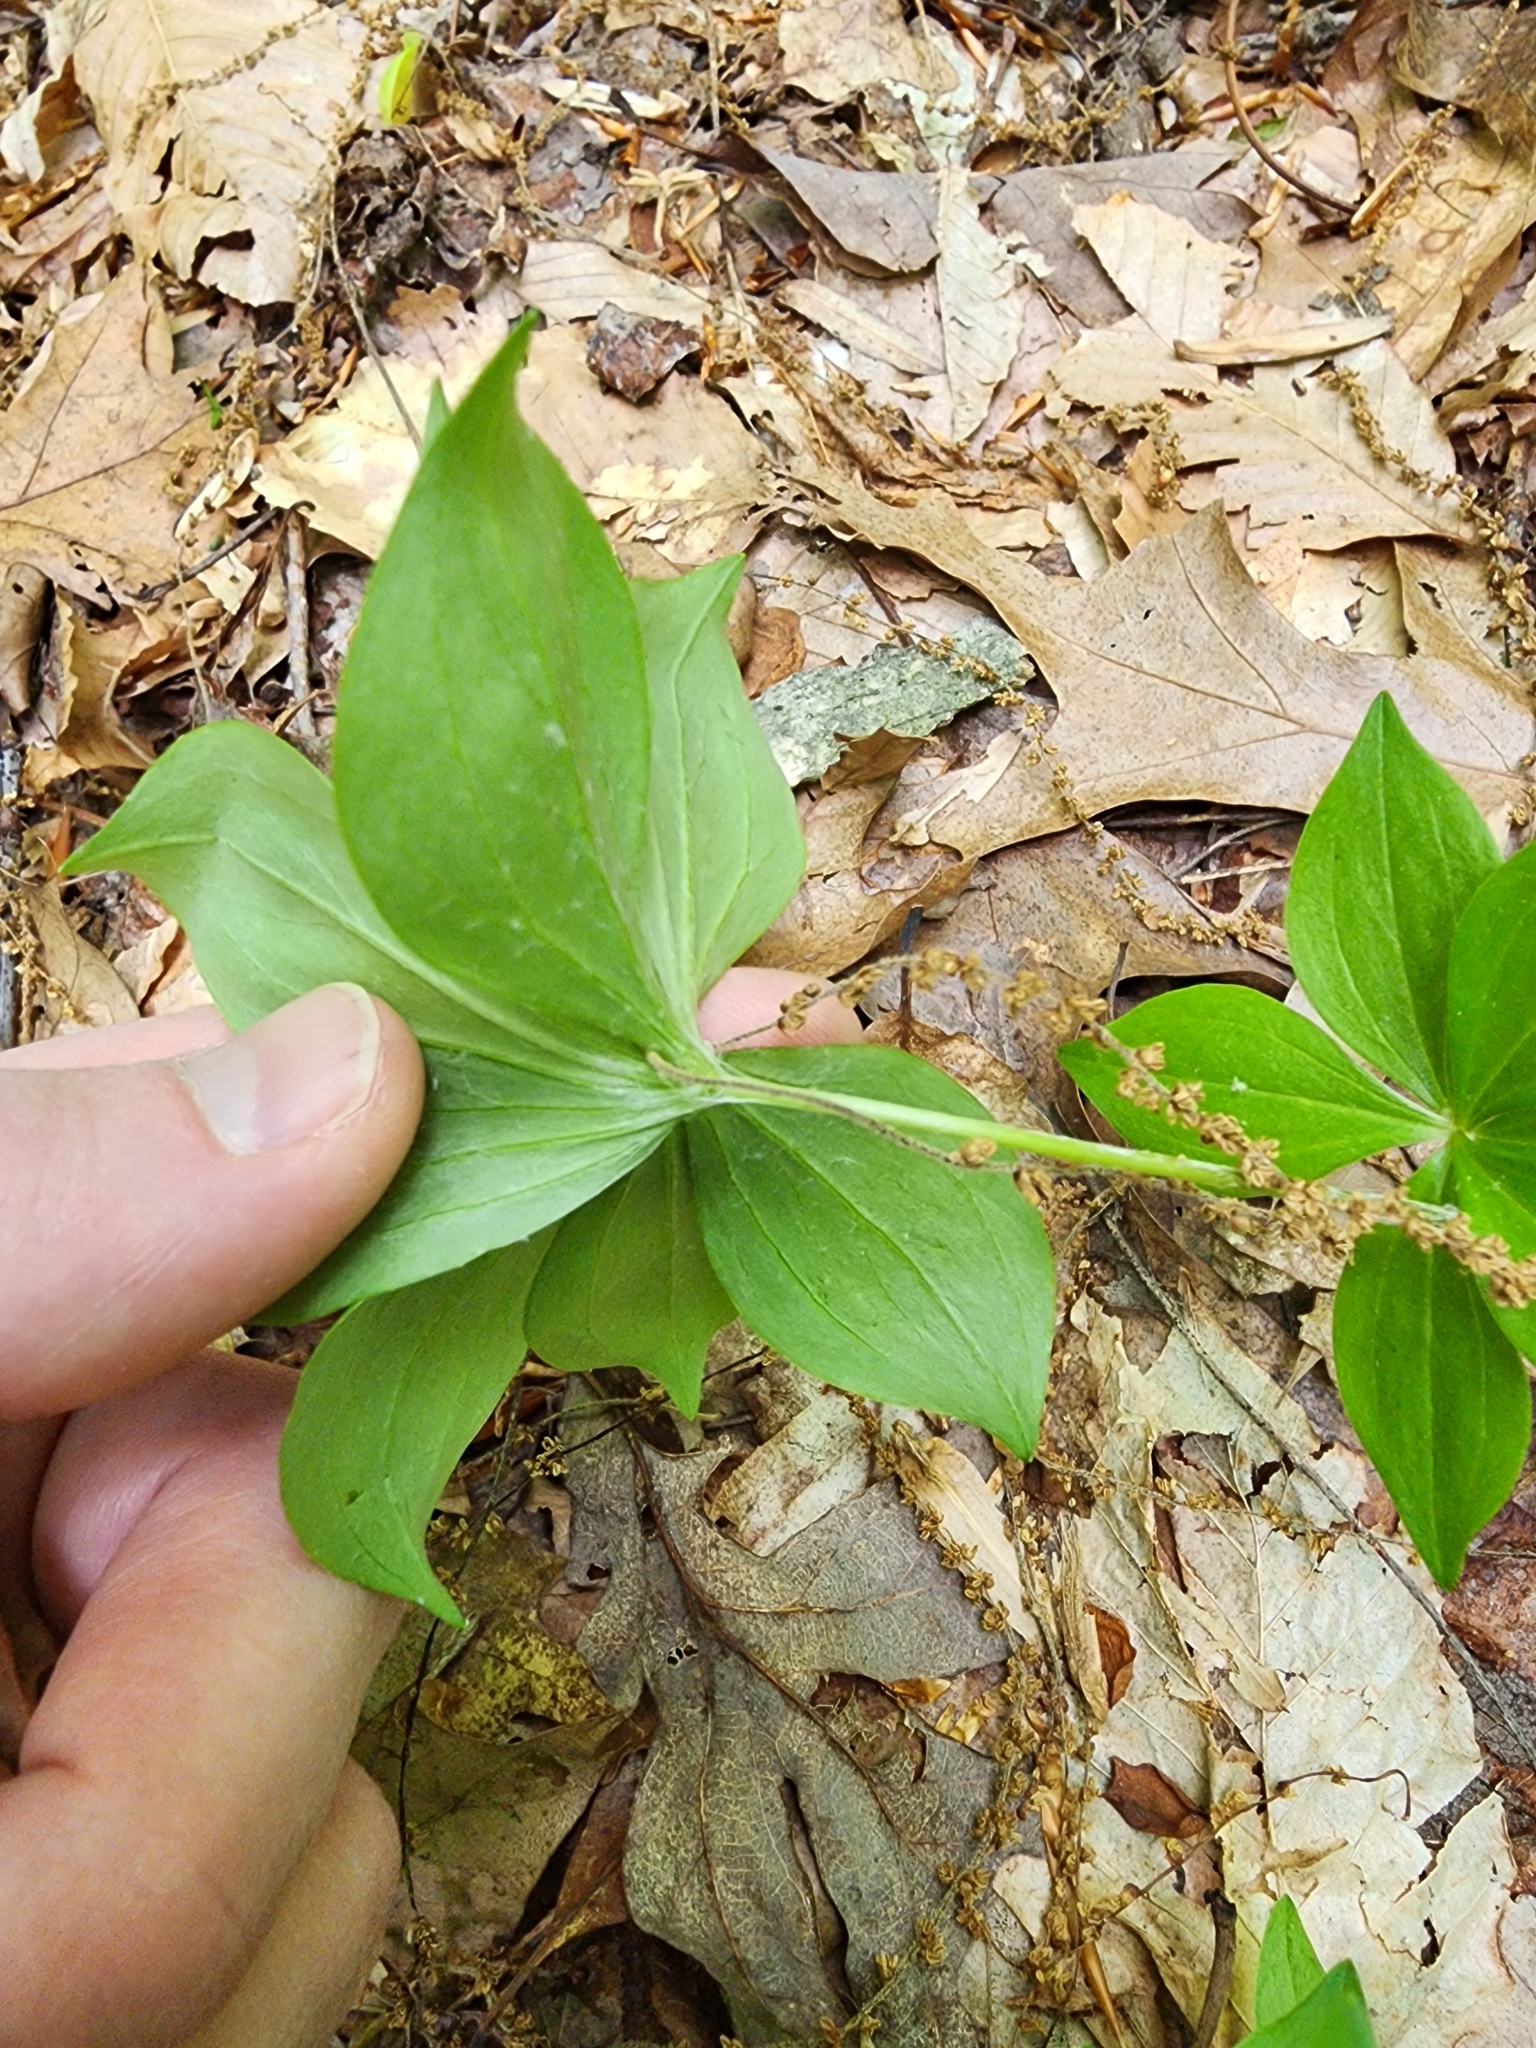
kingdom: Plantae
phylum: Tracheophyta
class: Liliopsida
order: Liliales
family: Liliaceae
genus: Medeola
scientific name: Medeola virginiana
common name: Indian cucumber-root
